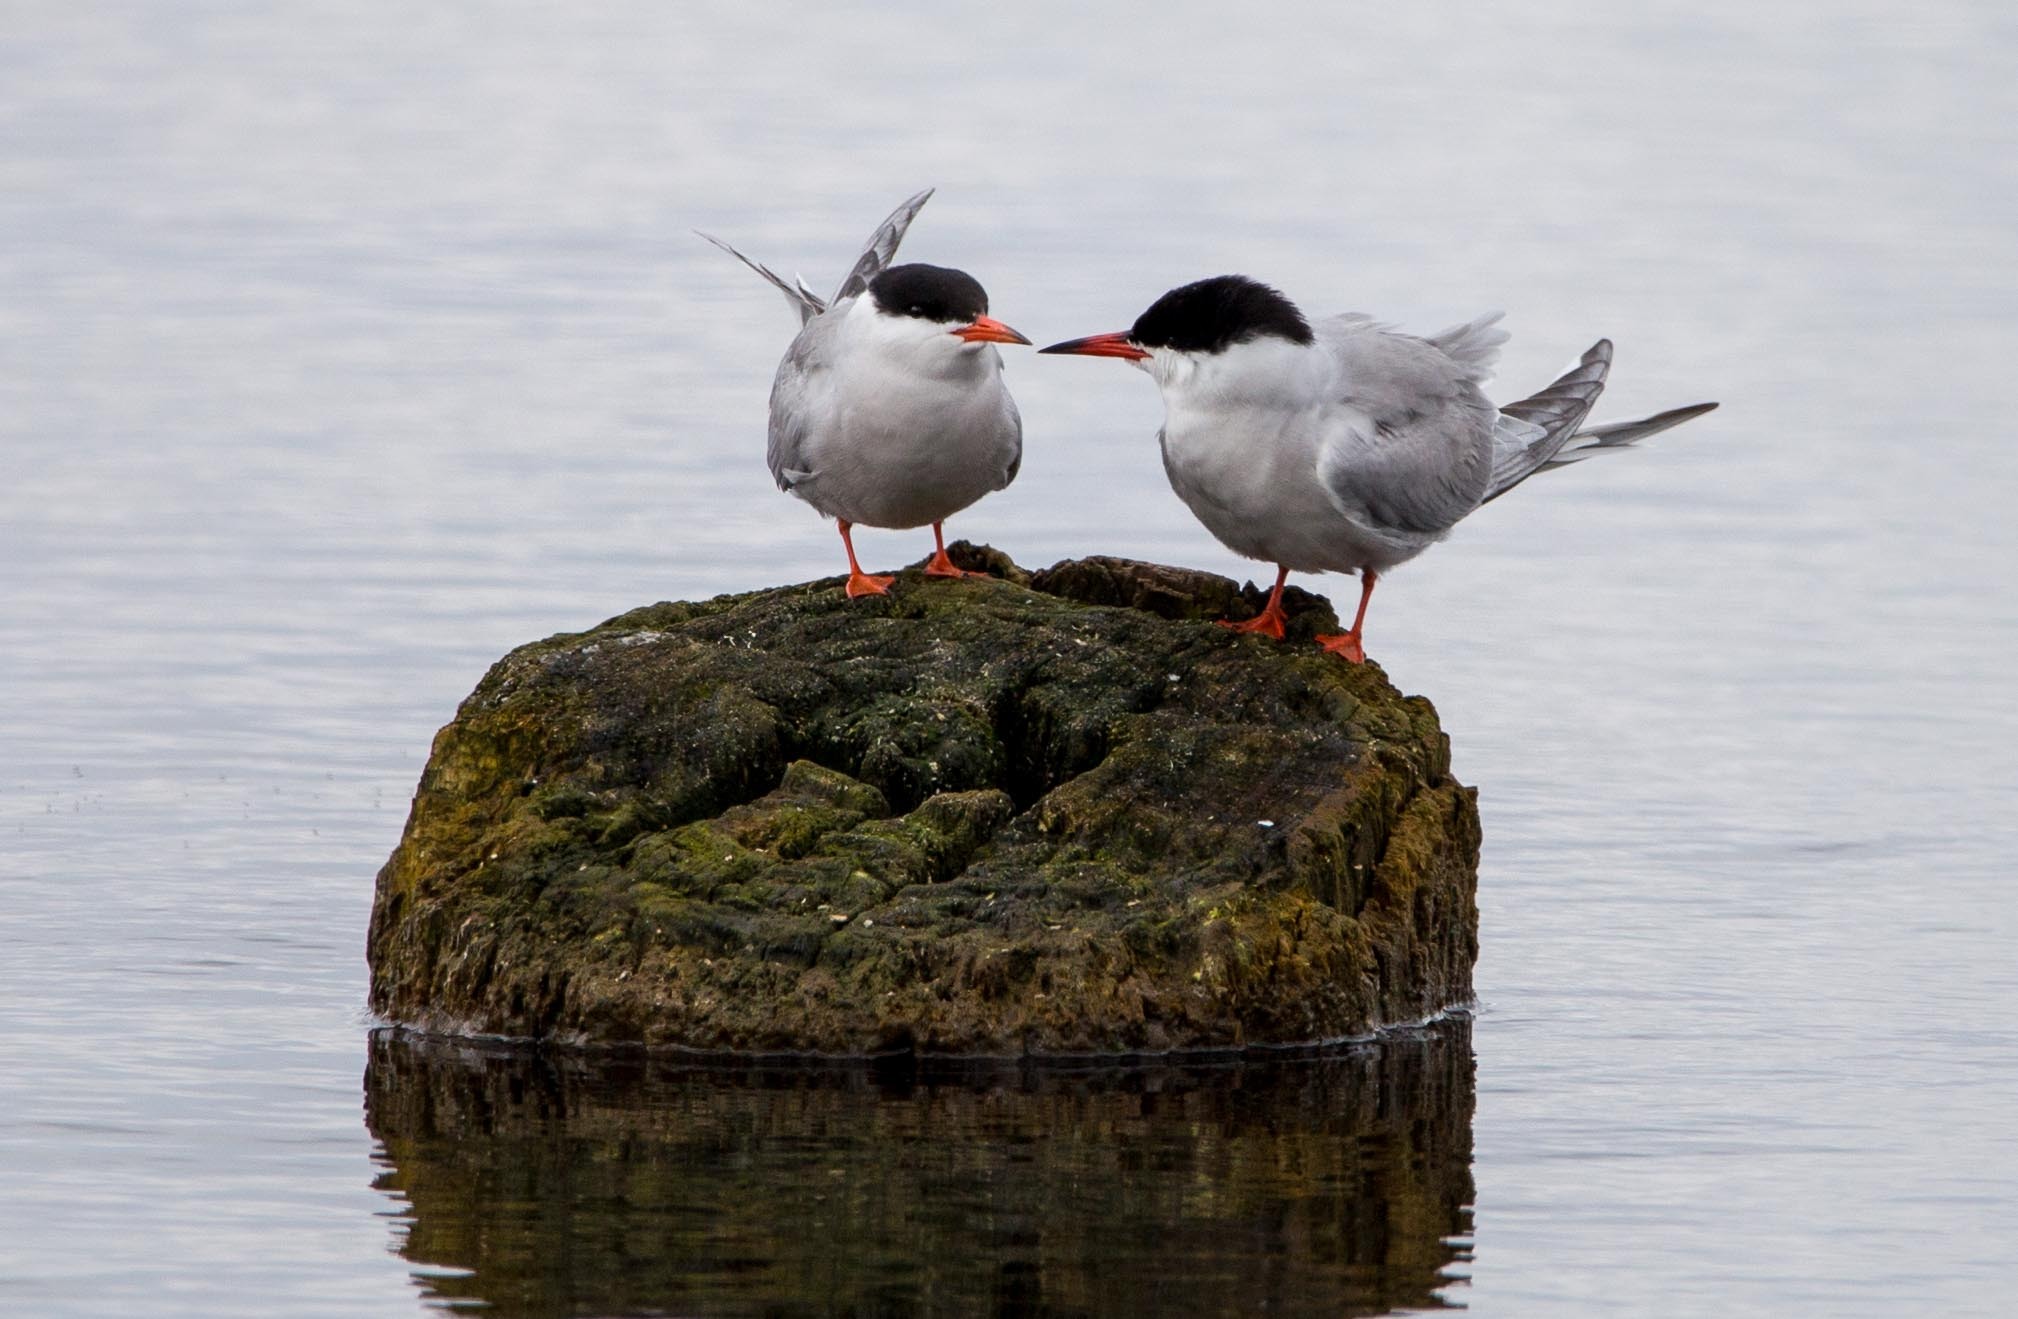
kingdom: Animalia
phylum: Chordata
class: Aves
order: Charadriiformes
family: Laridae
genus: Sterna
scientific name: Sterna hirundo
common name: Common tern
